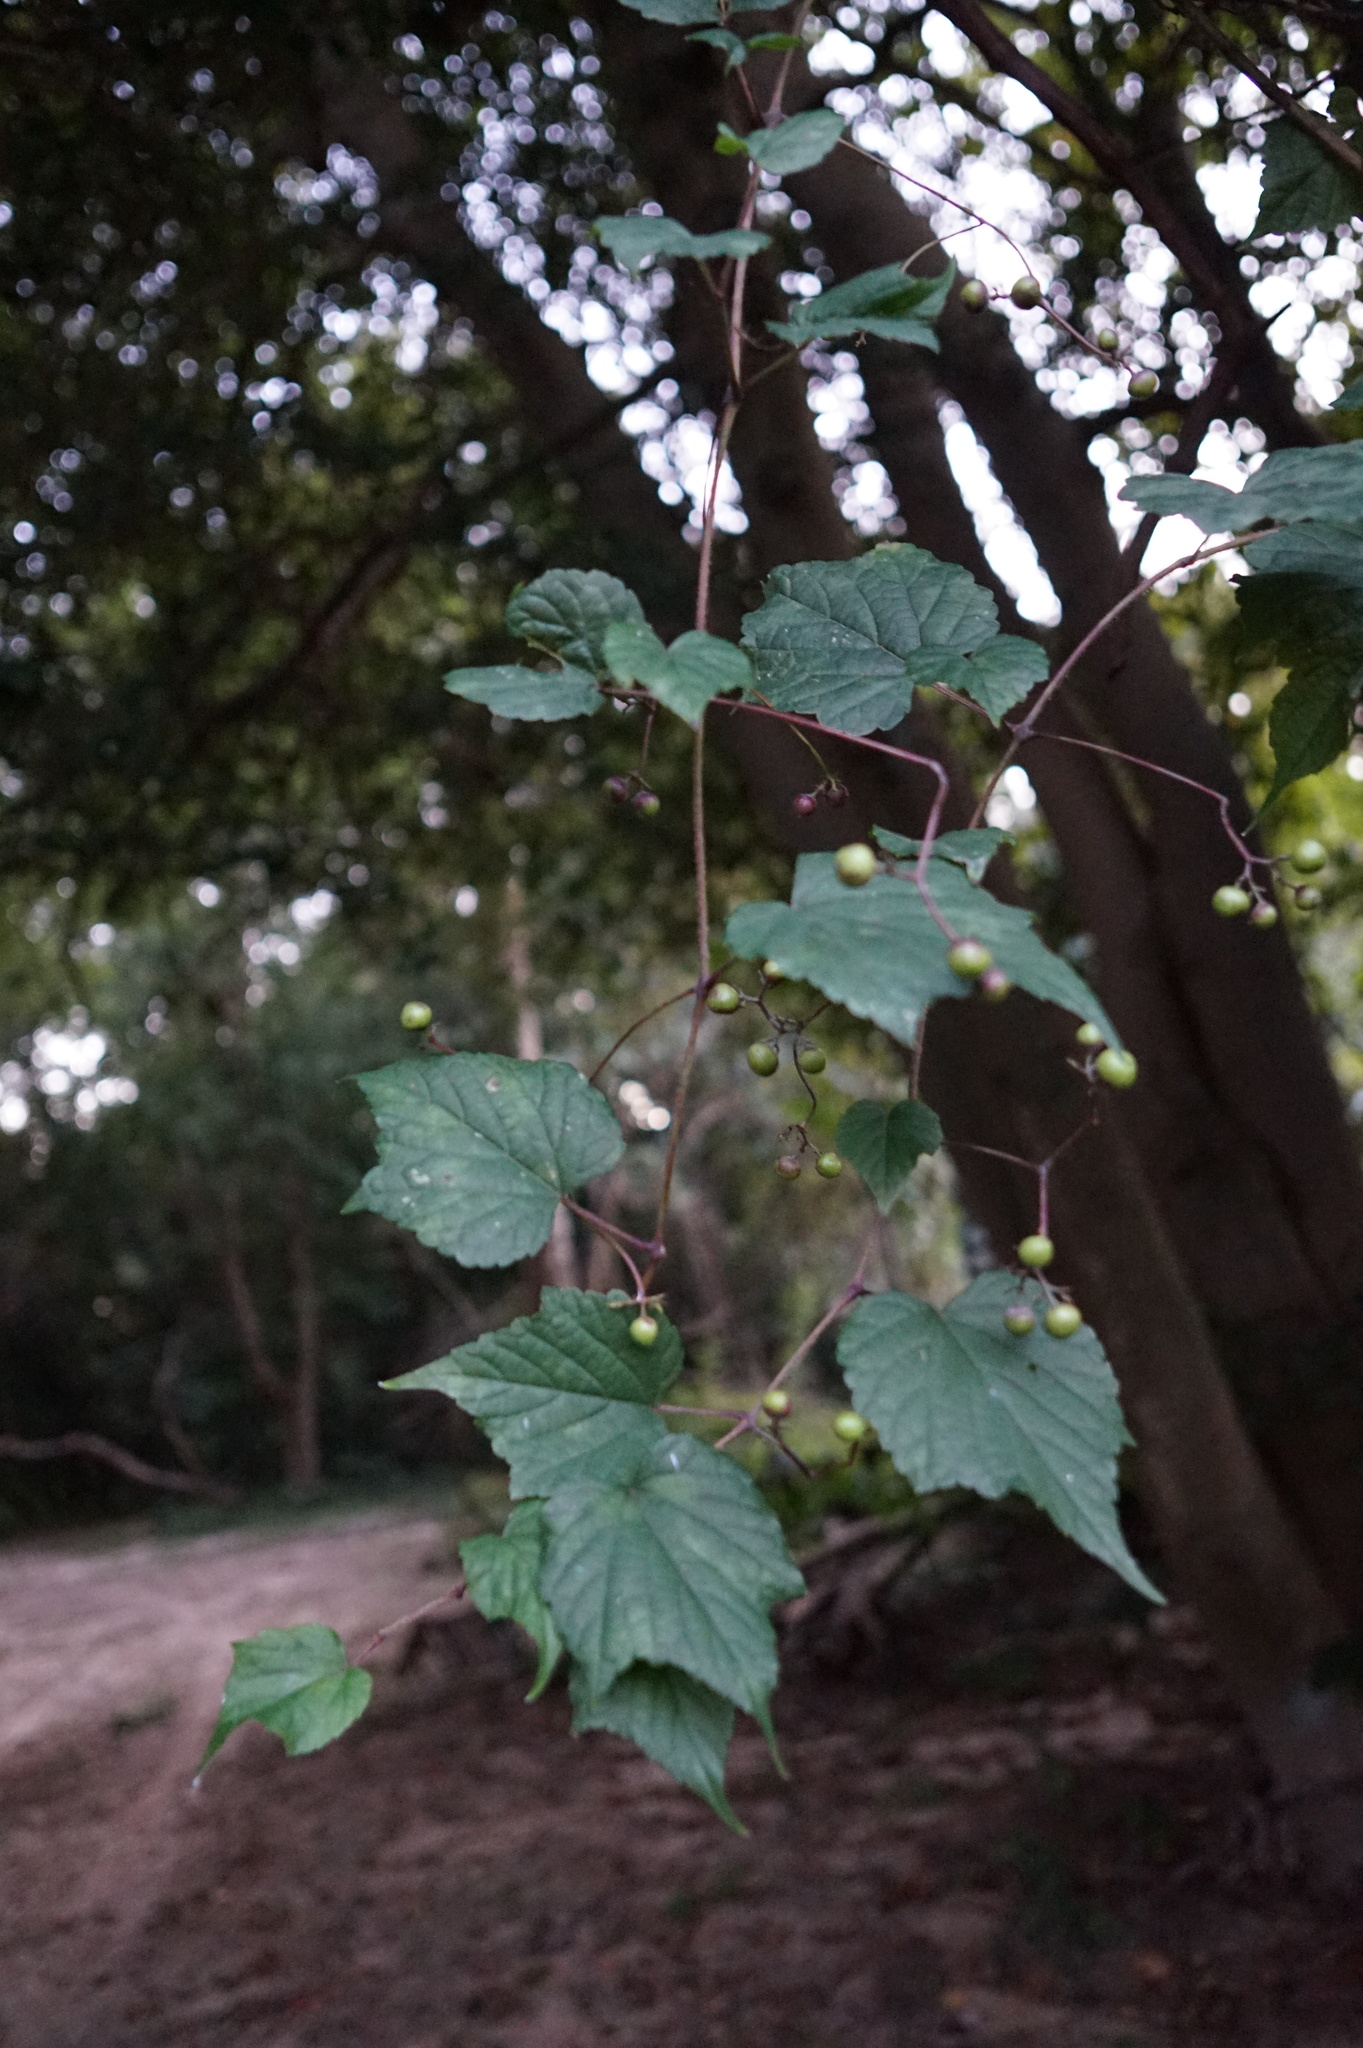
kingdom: Plantae
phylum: Tracheophyta
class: Magnoliopsida
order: Vitales
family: Vitaceae
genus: Ampelopsis
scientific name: Ampelopsis glandulosa
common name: Amur peppervine
